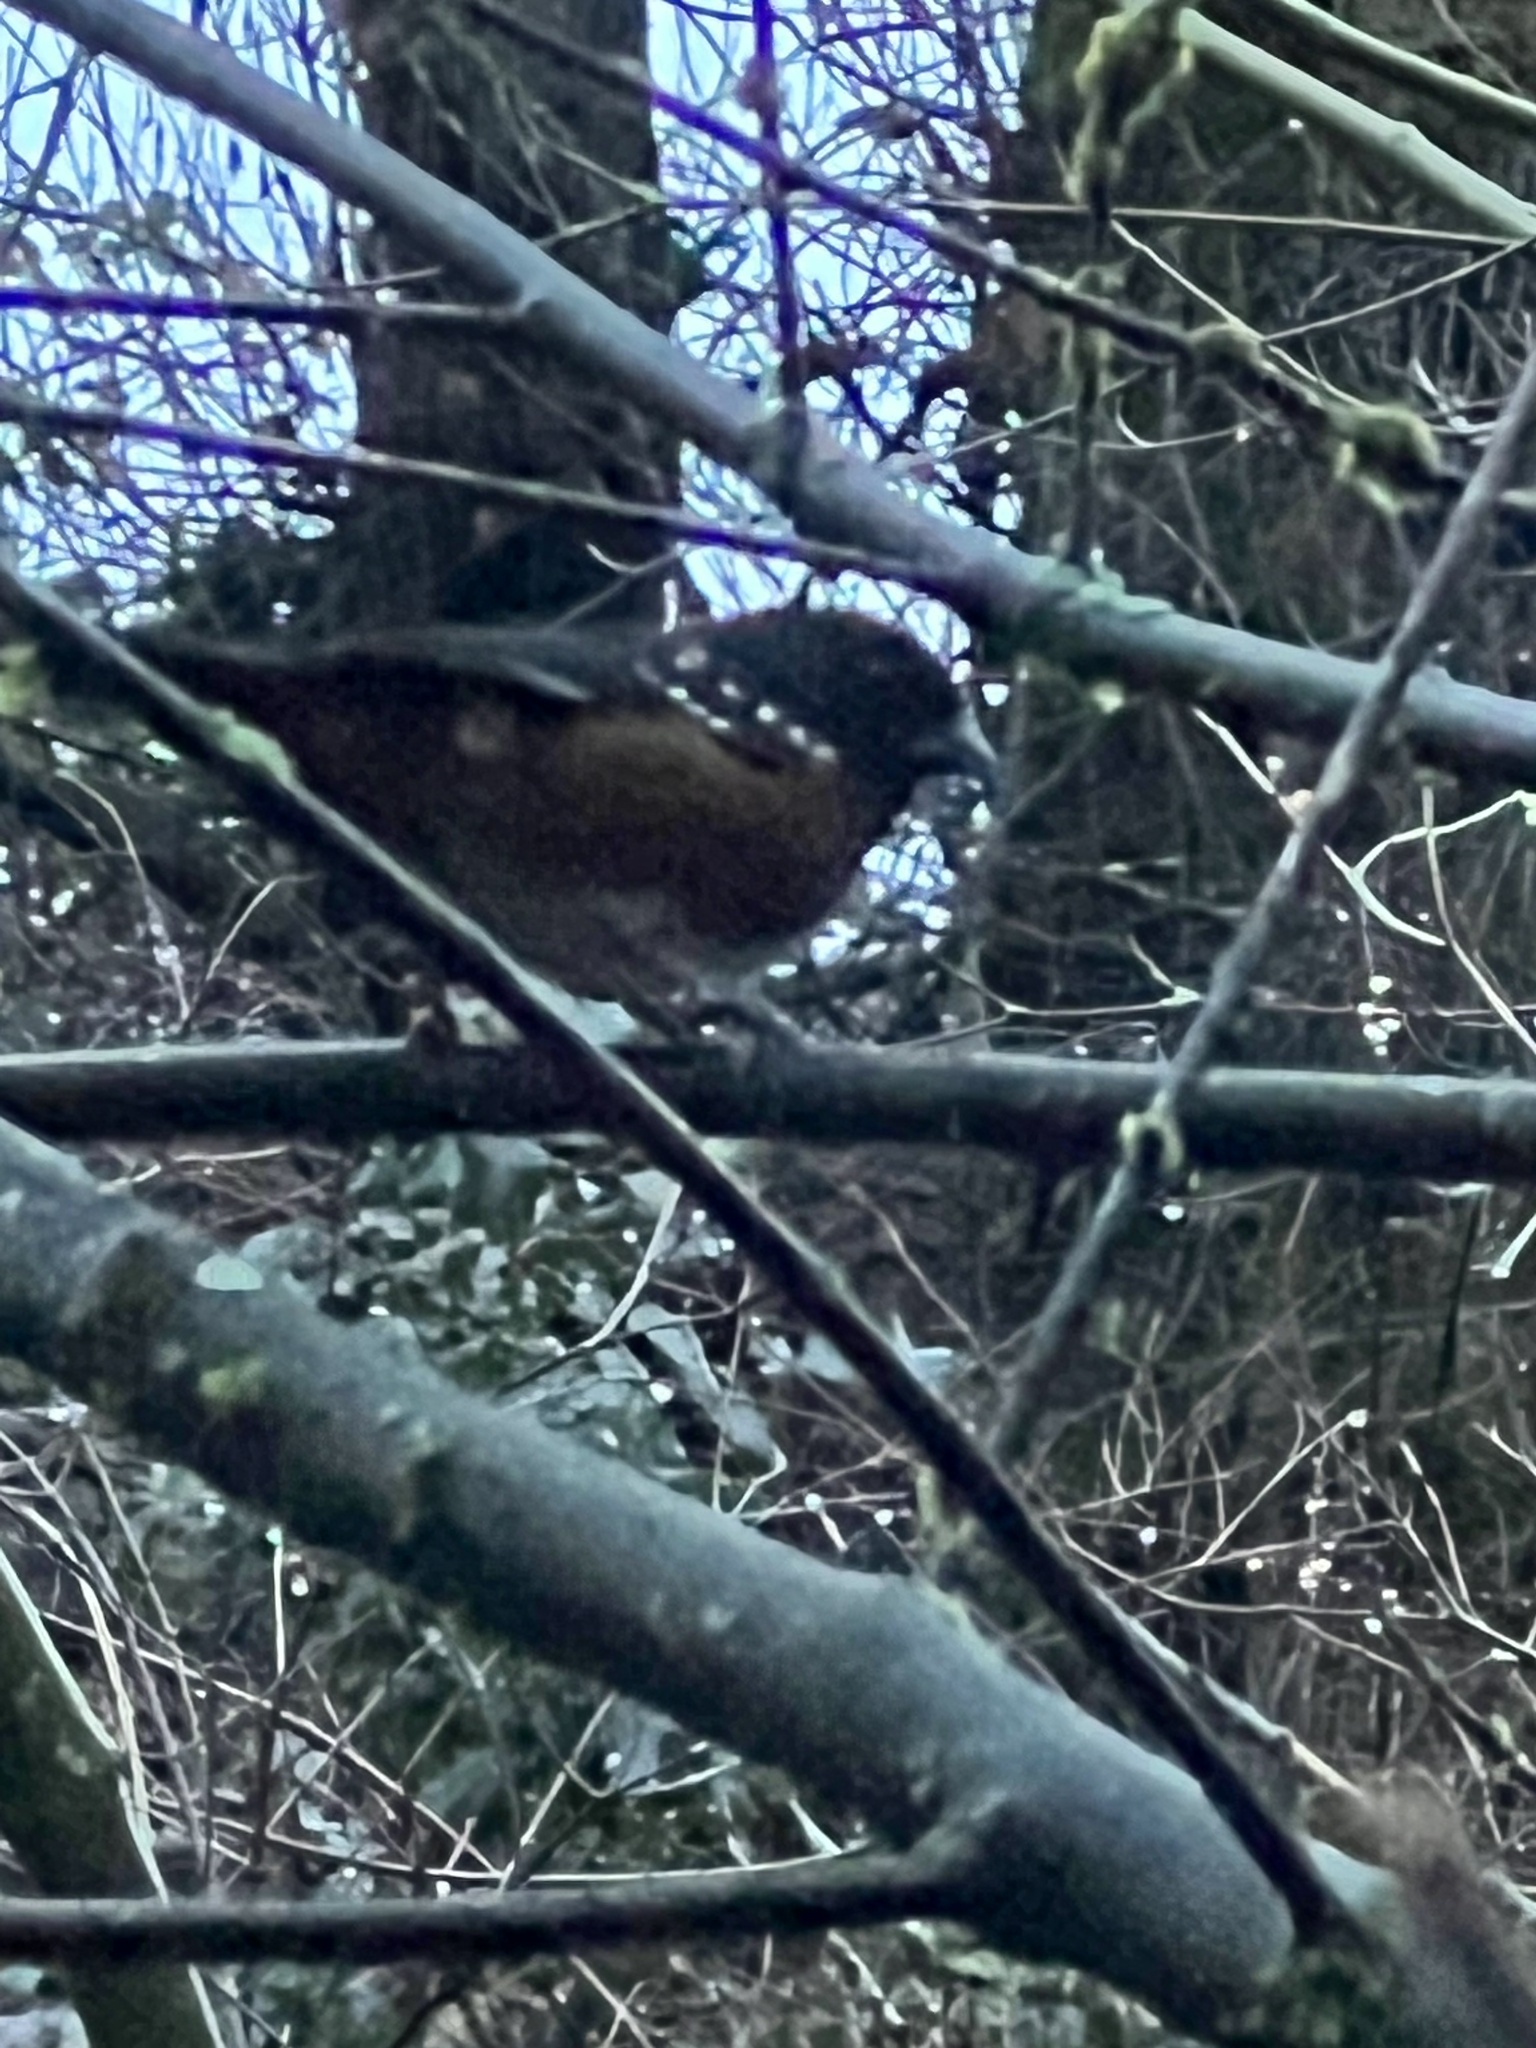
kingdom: Animalia
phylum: Chordata
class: Aves
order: Passeriformes
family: Passerellidae
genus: Pipilo
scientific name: Pipilo maculatus
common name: Spotted towhee
